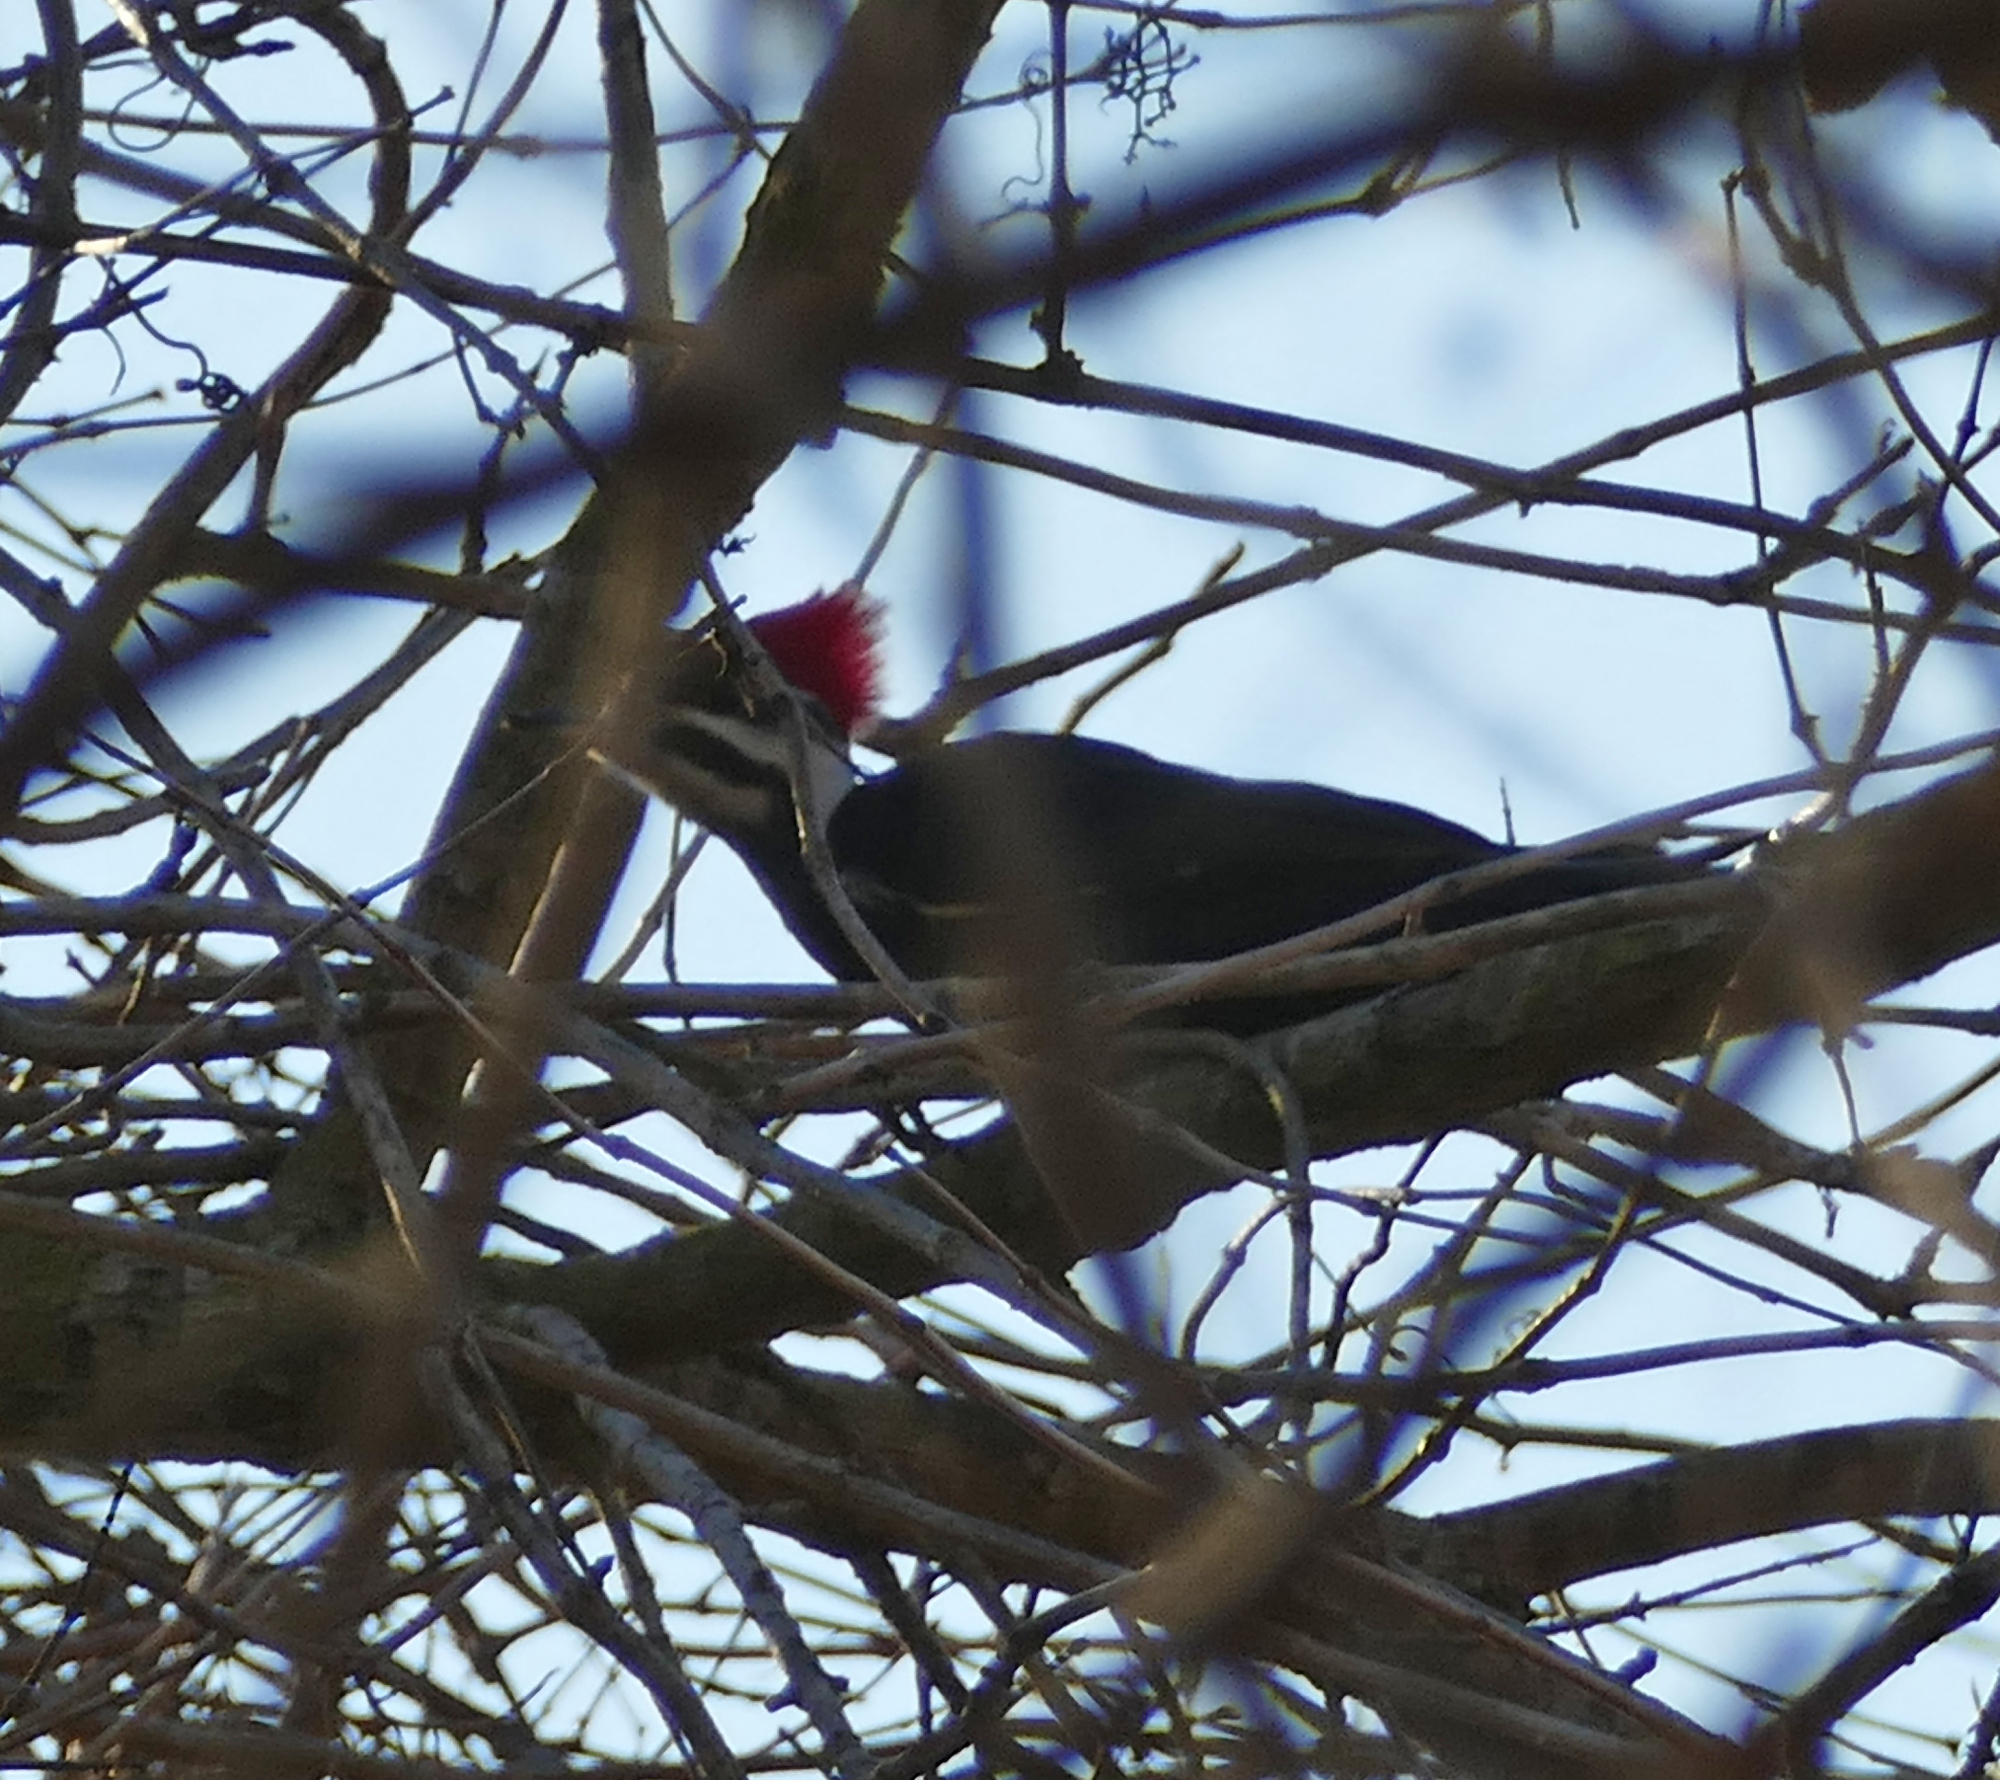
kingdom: Animalia
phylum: Chordata
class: Aves
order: Piciformes
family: Picidae
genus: Dryocopus
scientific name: Dryocopus pileatus
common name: Pileated woodpecker
